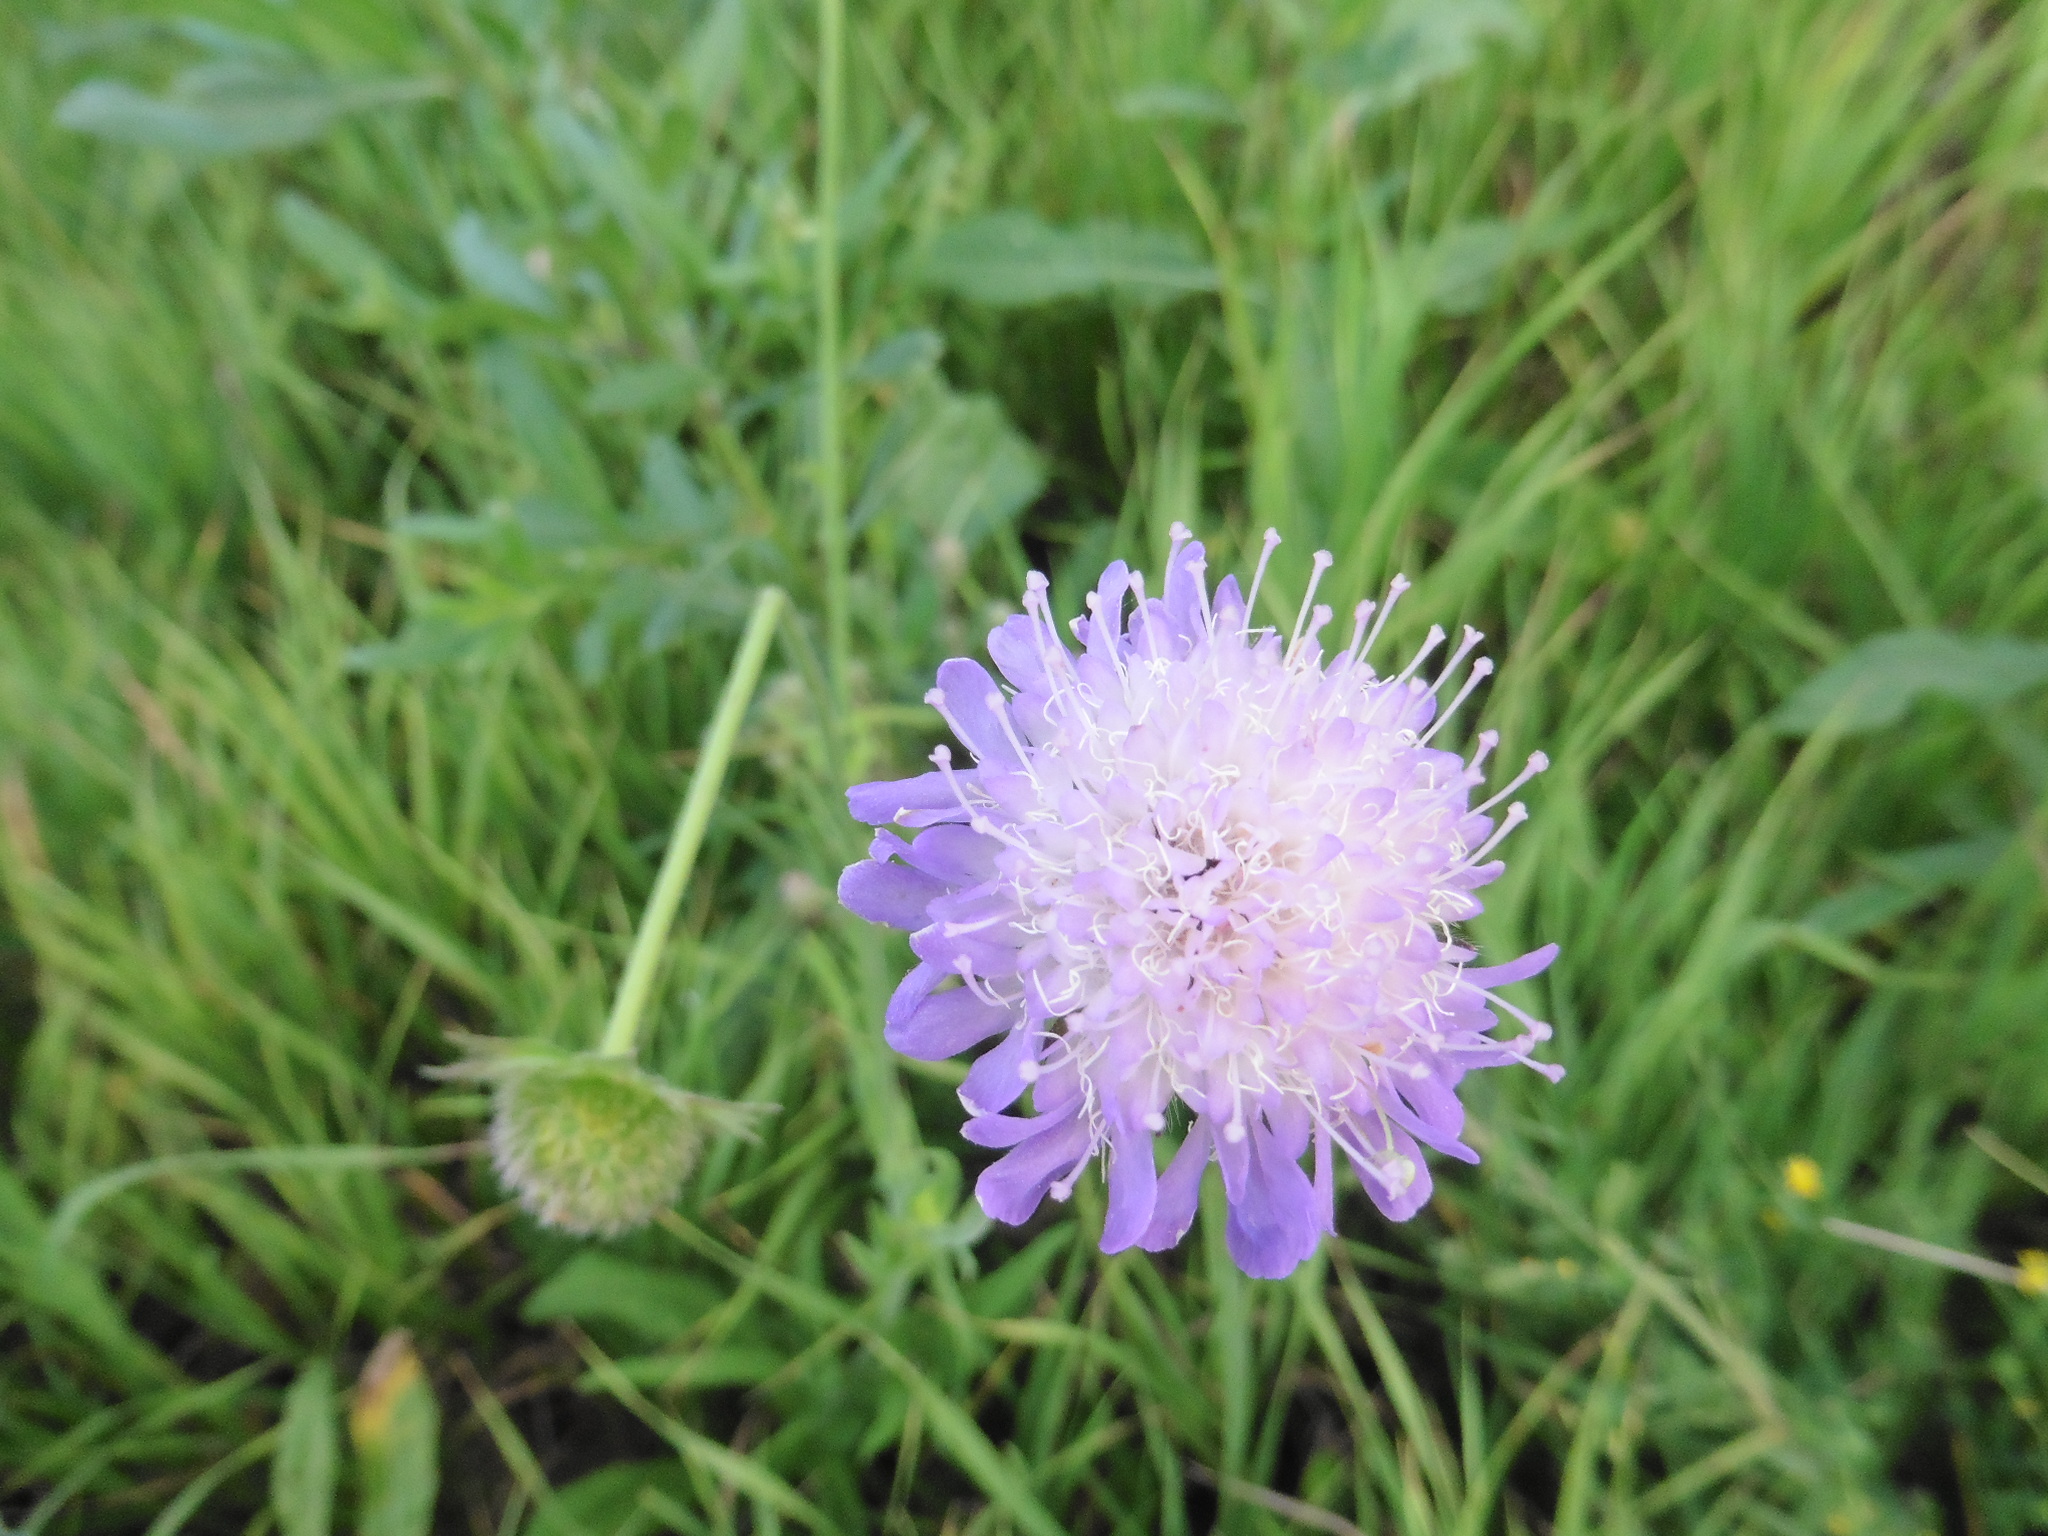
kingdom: Plantae
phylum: Tracheophyta
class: Magnoliopsida
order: Dipsacales
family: Caprifoliaceae
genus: Knautia
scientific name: Knautia arvensis
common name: Field scabiosa
